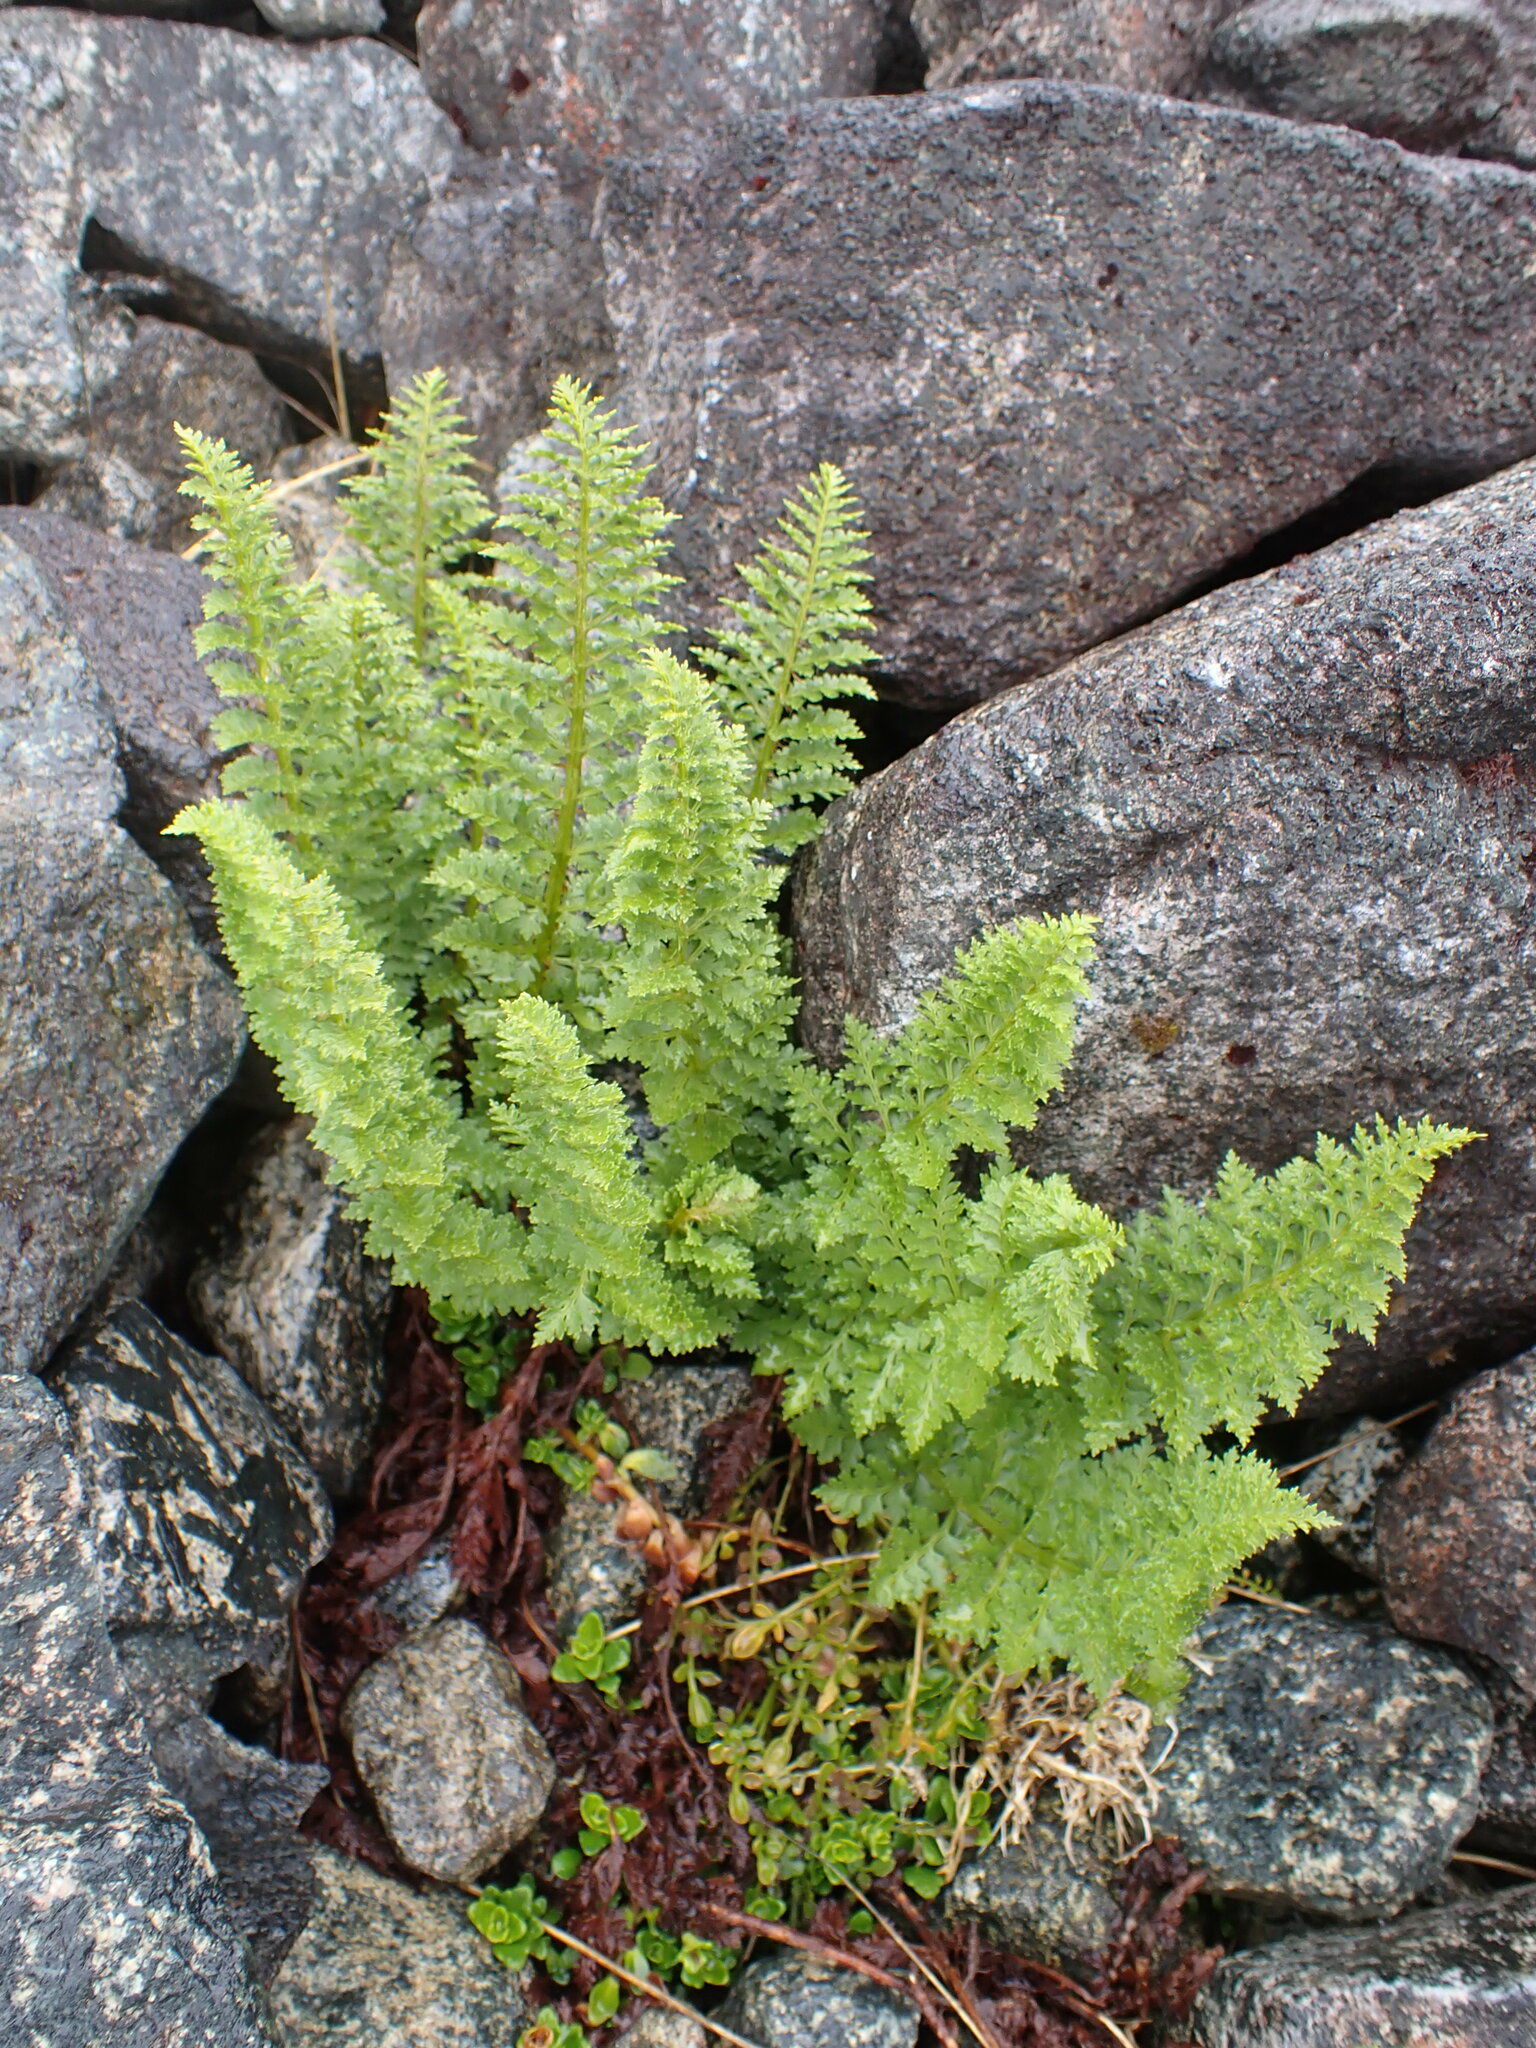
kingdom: Plantae
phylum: Tracheophyta
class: Polypodiopsida
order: Polypodiales
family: Dryopteridaceae
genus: Polystichum
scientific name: Polystichum cystostegia
